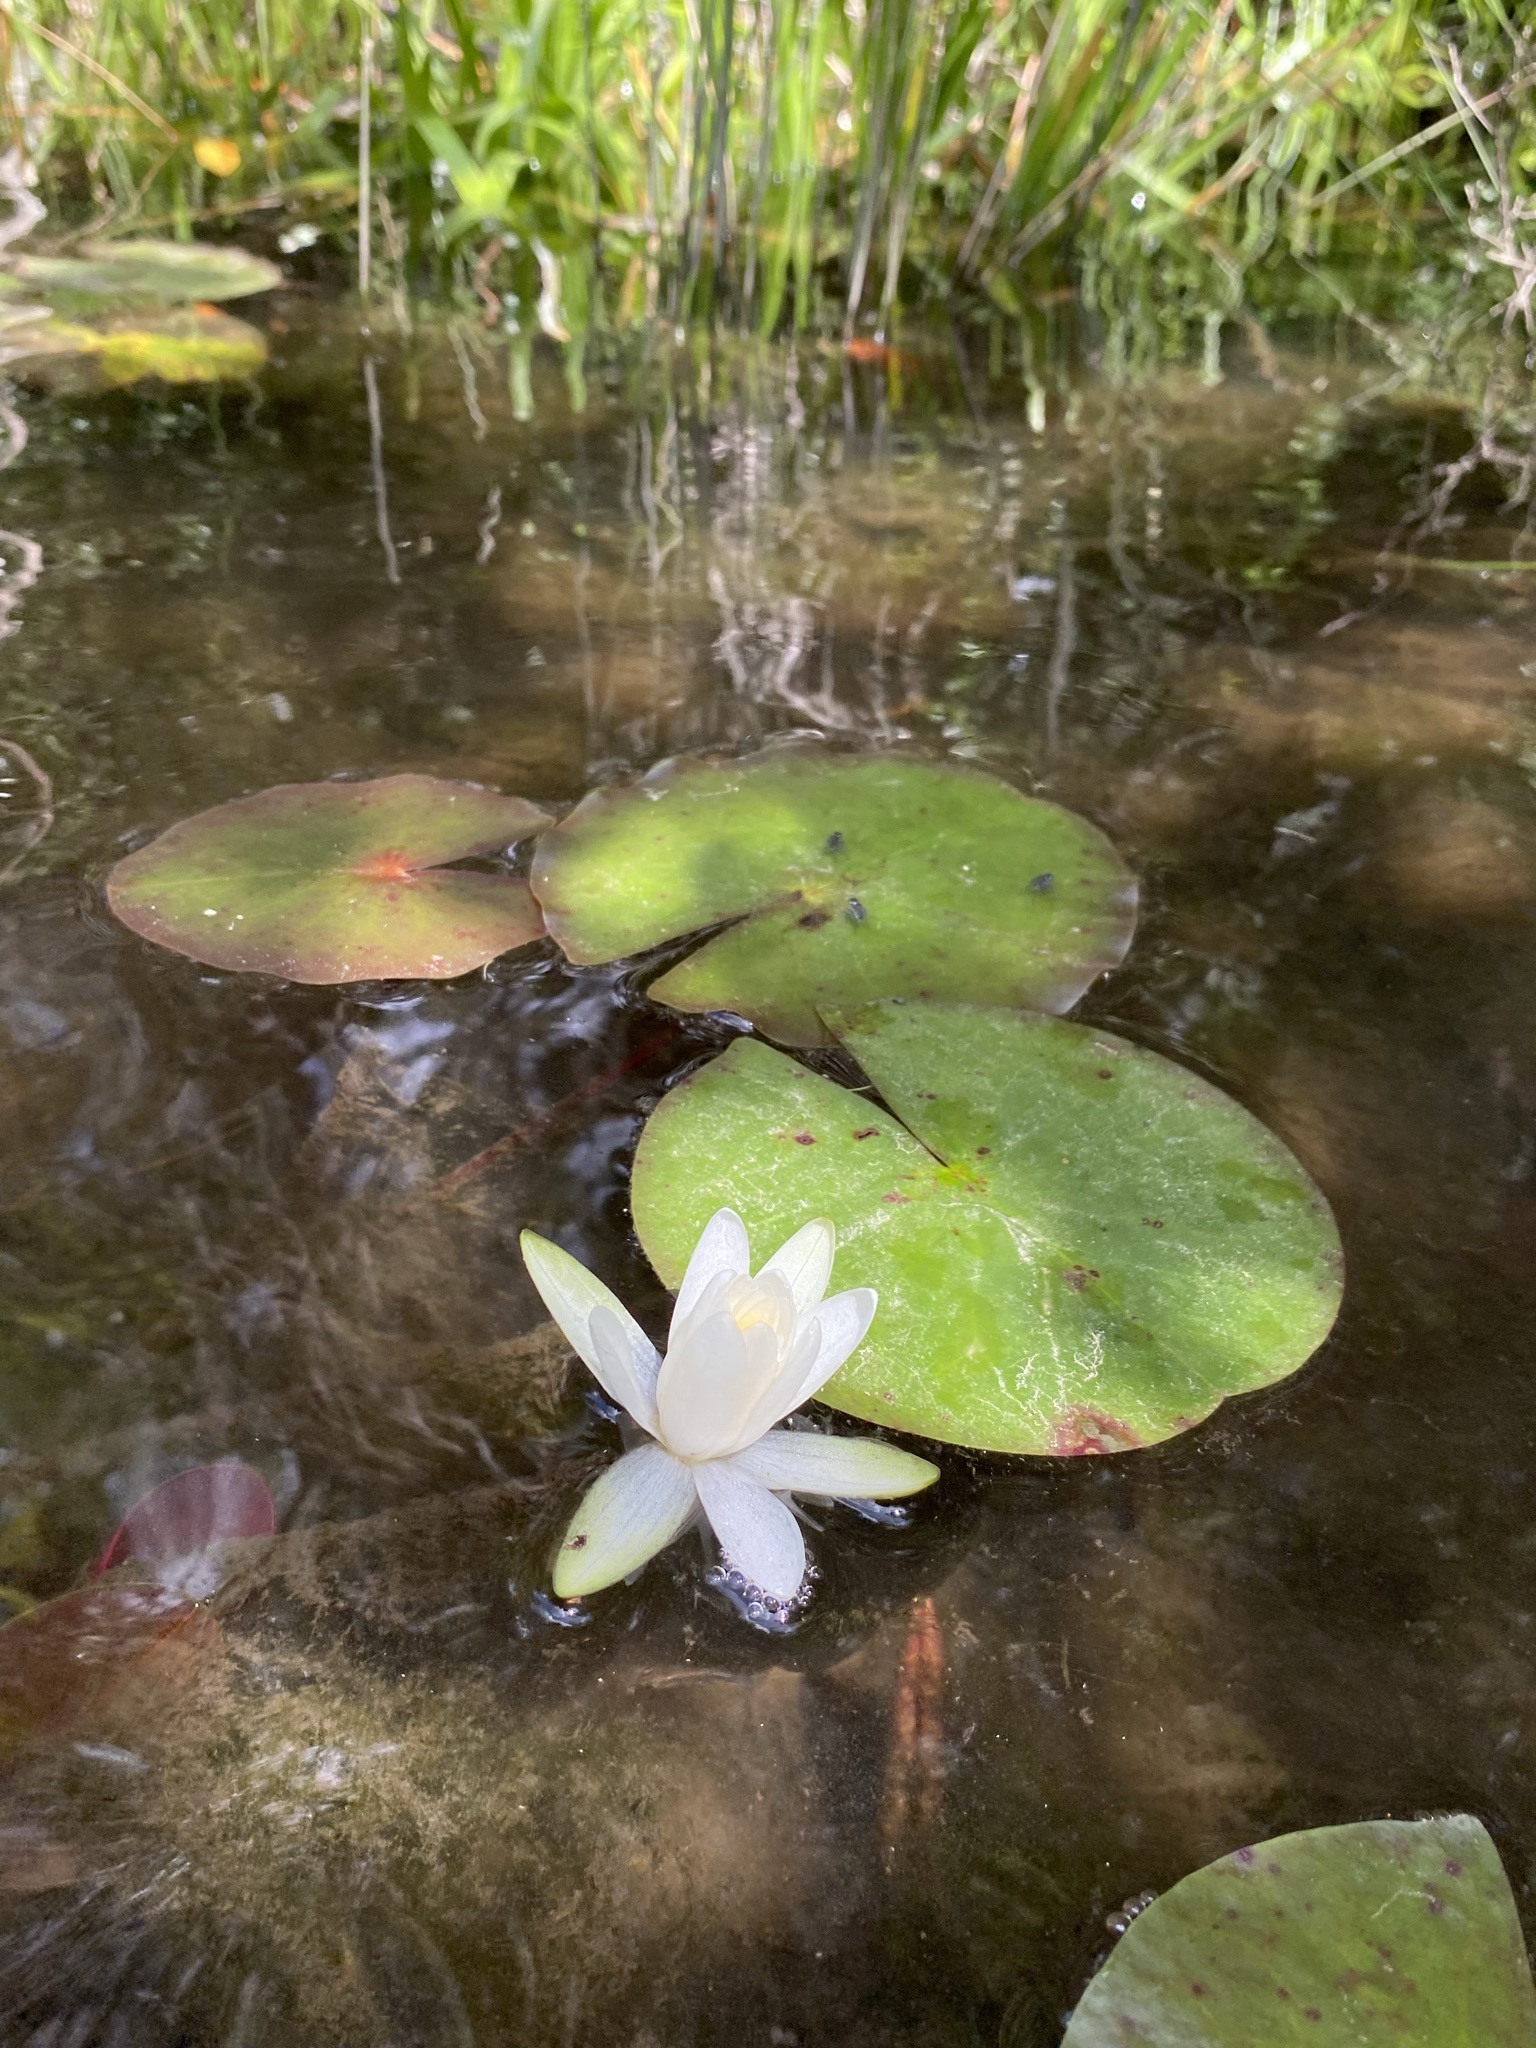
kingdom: Plantae
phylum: Tracheophyta
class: Magnoliopsida
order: Nymphaeales
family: Nymphaeaceae
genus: Nymphaea
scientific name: Nymphaea odorata
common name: Fragrant water-lily
